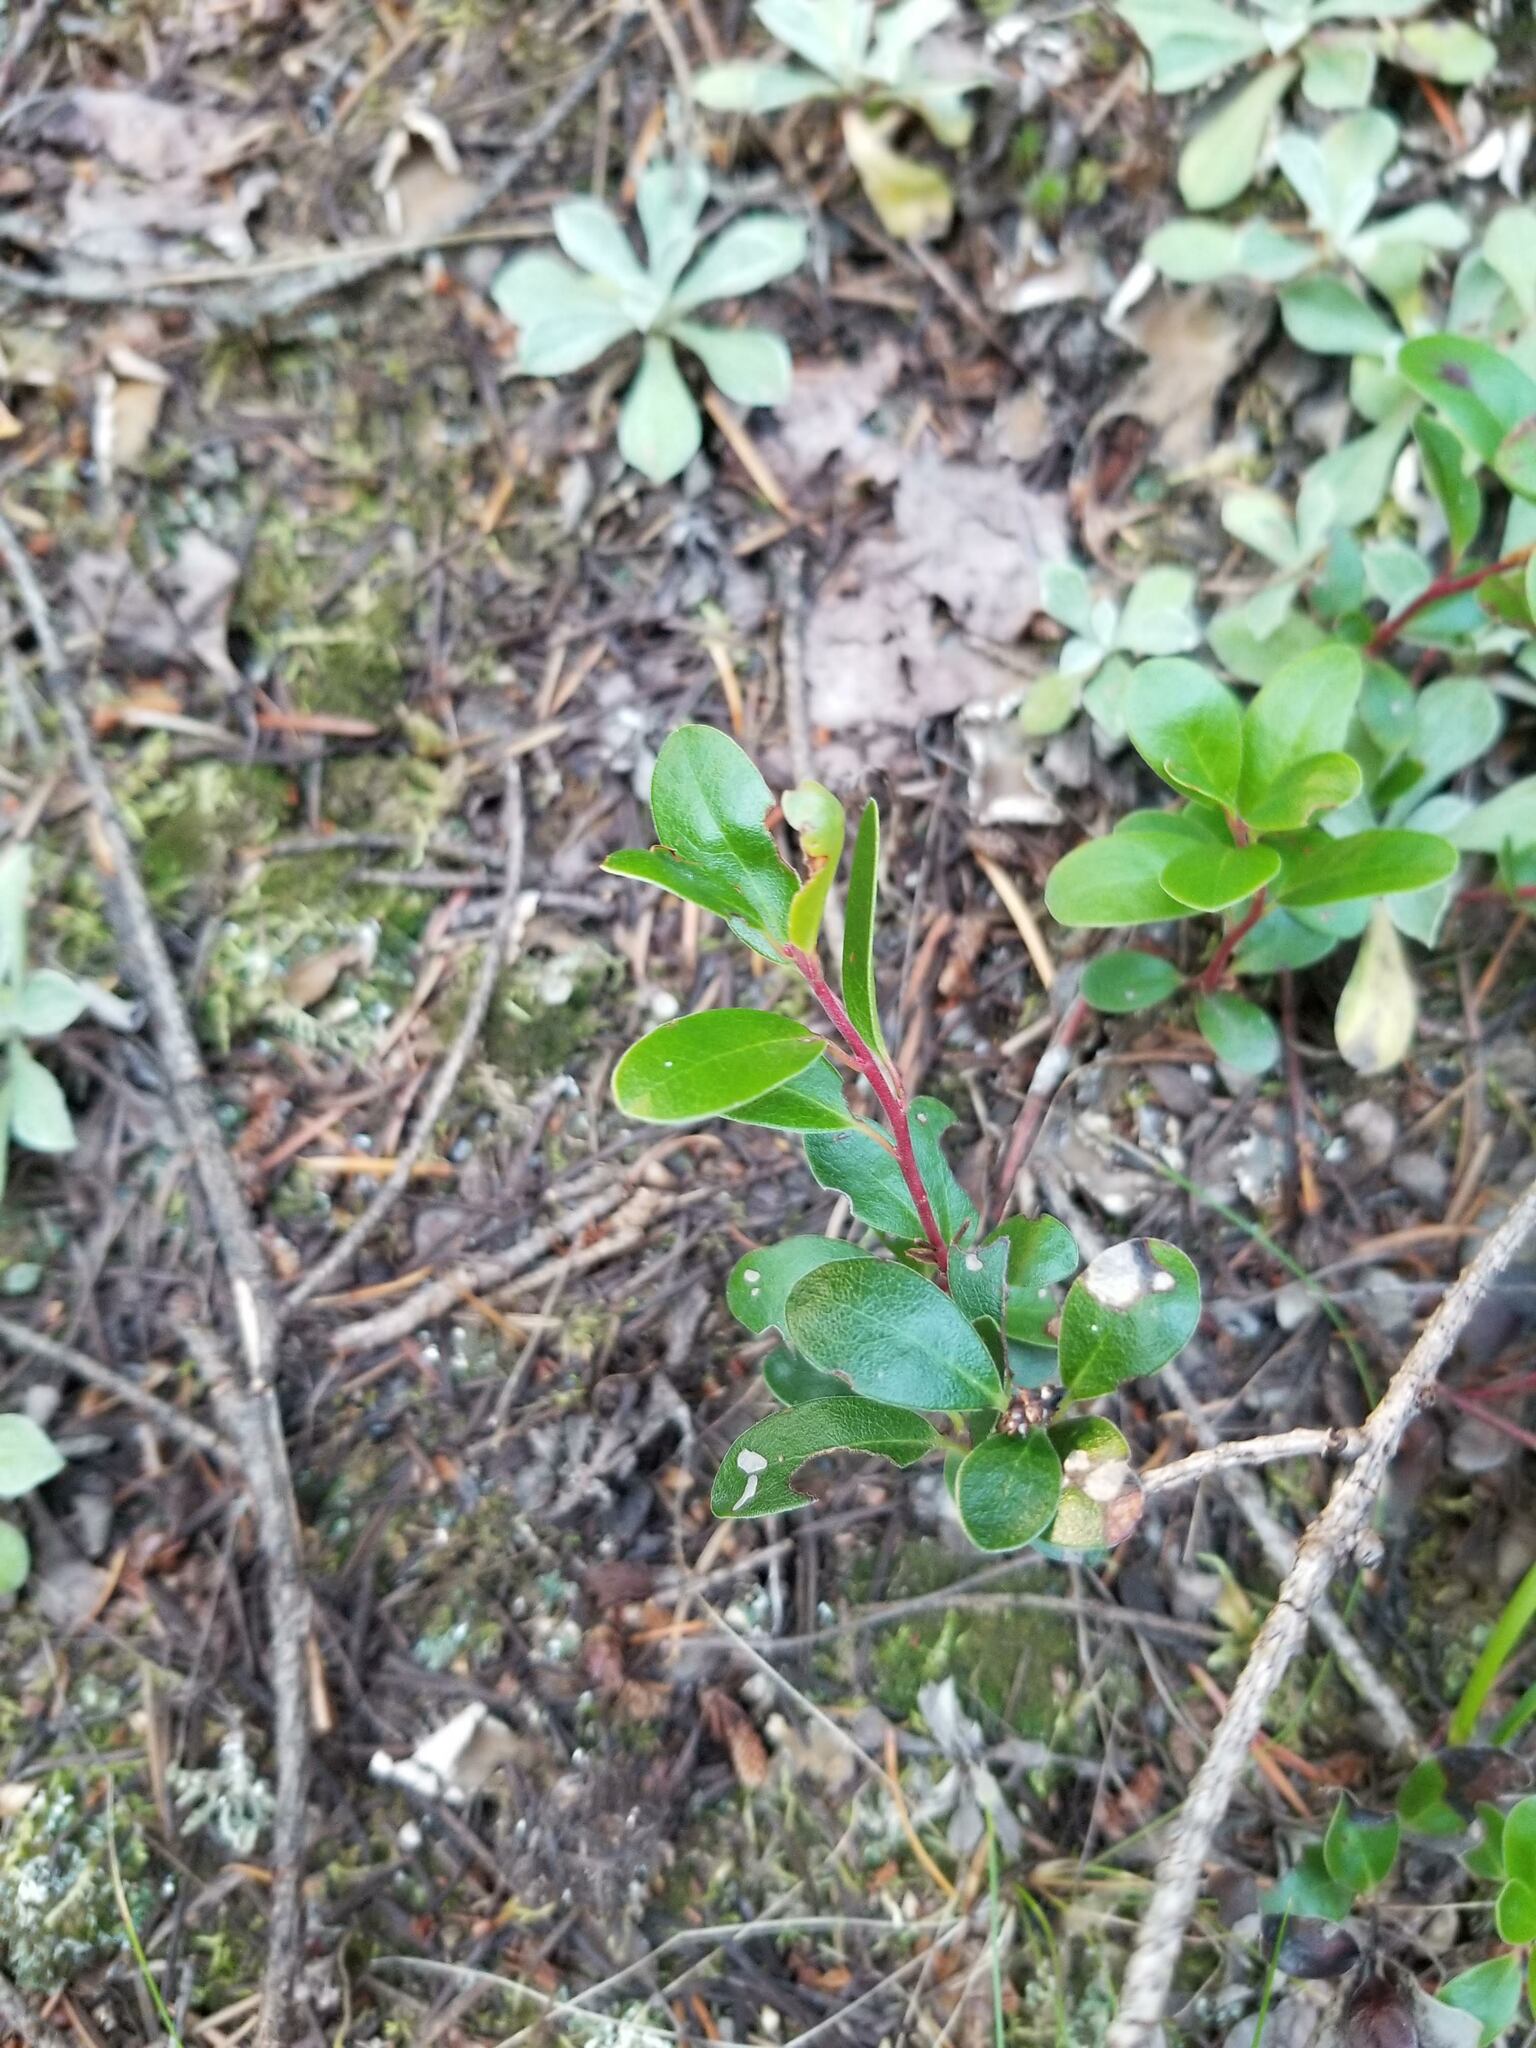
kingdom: Plantae
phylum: Tracheophyta
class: Magnoliopsida
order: Ericales
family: Ericaceae
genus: Arctostaphylos
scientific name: Arctostaphylos uva-ursi
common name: Bearberry
